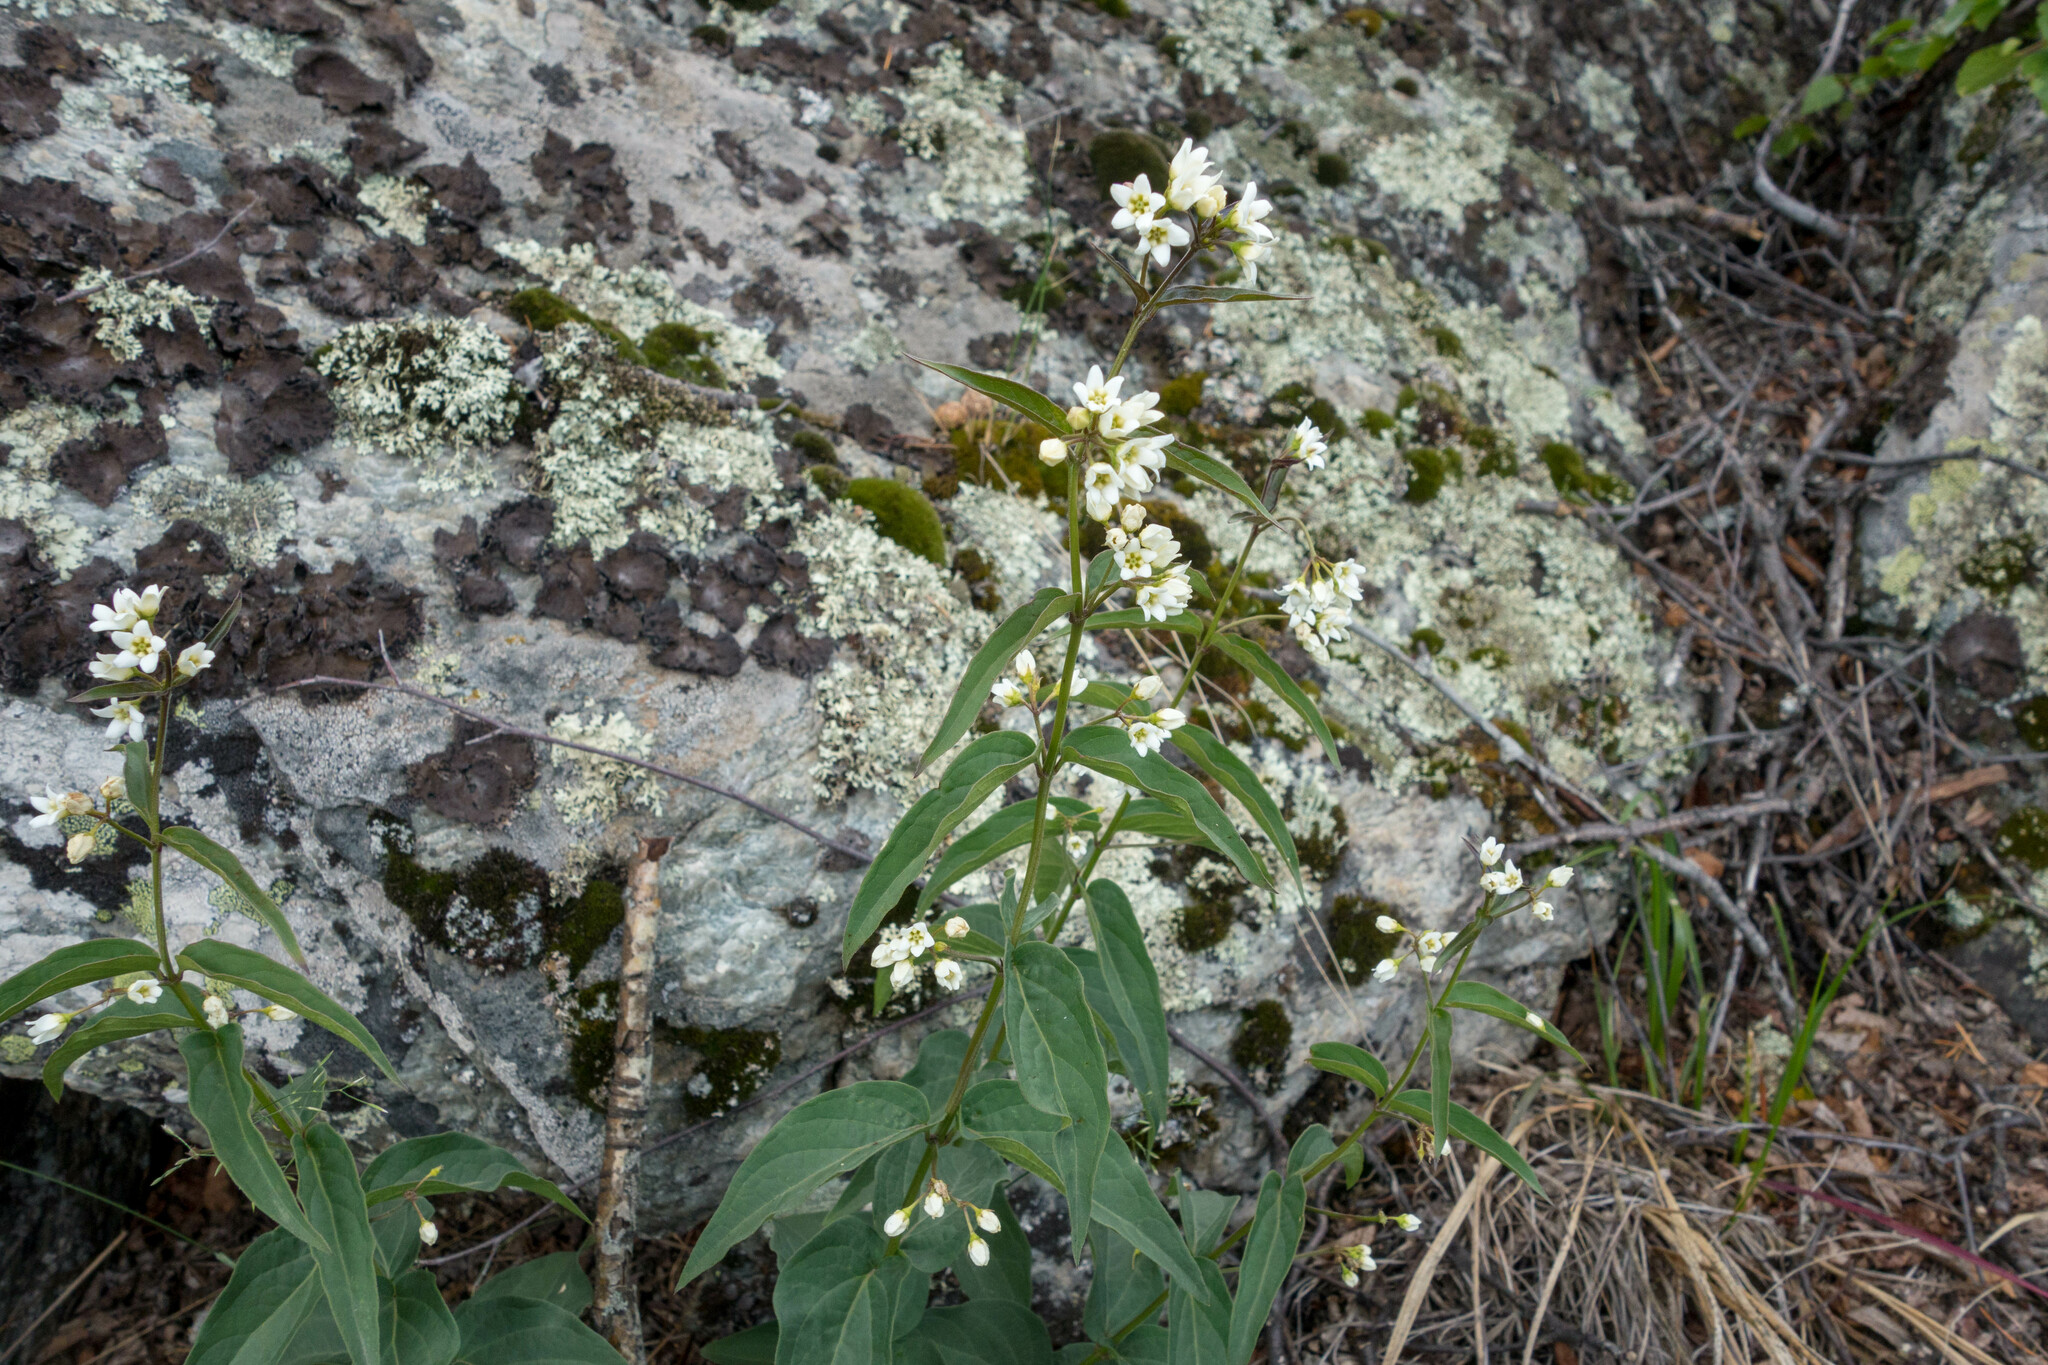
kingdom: Plantae
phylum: Tracheophyta
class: Magnoliopsida
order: Gentianales
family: Apocynaceae
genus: Vincetoxicum
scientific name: Vincetoxicum hirundinaria
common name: White swallowwort
